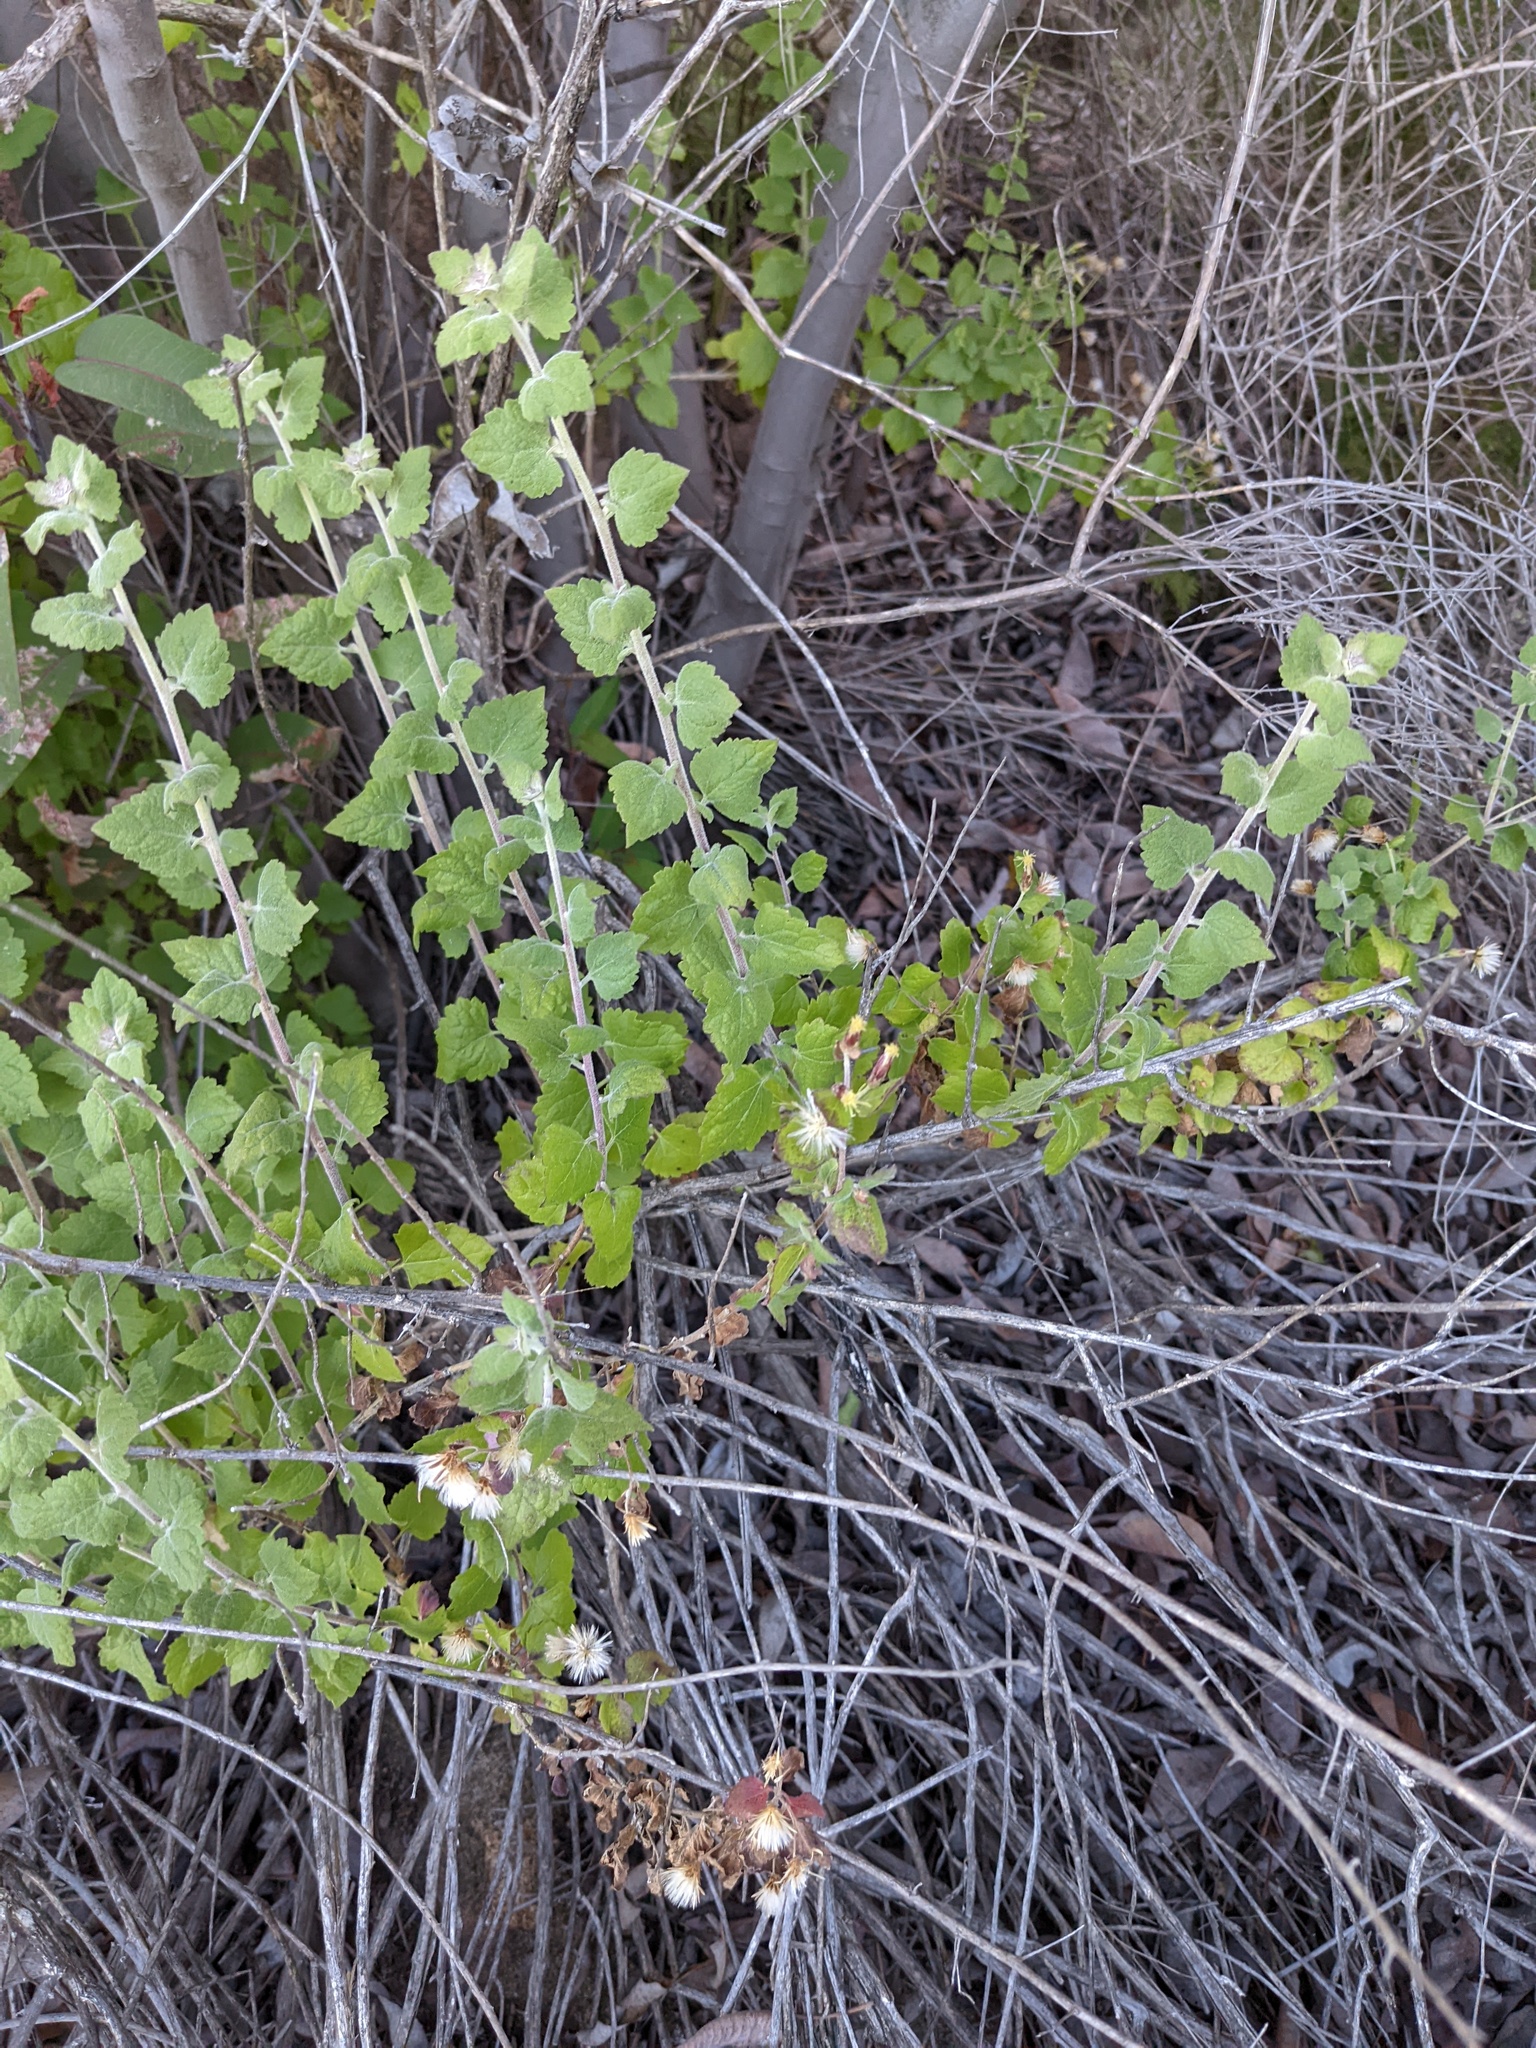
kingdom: Plantae
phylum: Tracheophyta
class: Magnoliopsida
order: Asterales
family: Asteraceae
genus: Brickellia
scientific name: Brickellia californica
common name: California brickellbush
